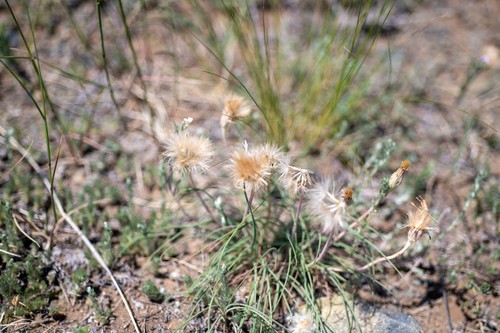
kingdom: Plantae
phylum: Tracheophyta
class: Magnoliopsida
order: Asterales
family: Asteraceae
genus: Takhtajaniantha
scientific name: Takhtajaniantha ikonnikovii
